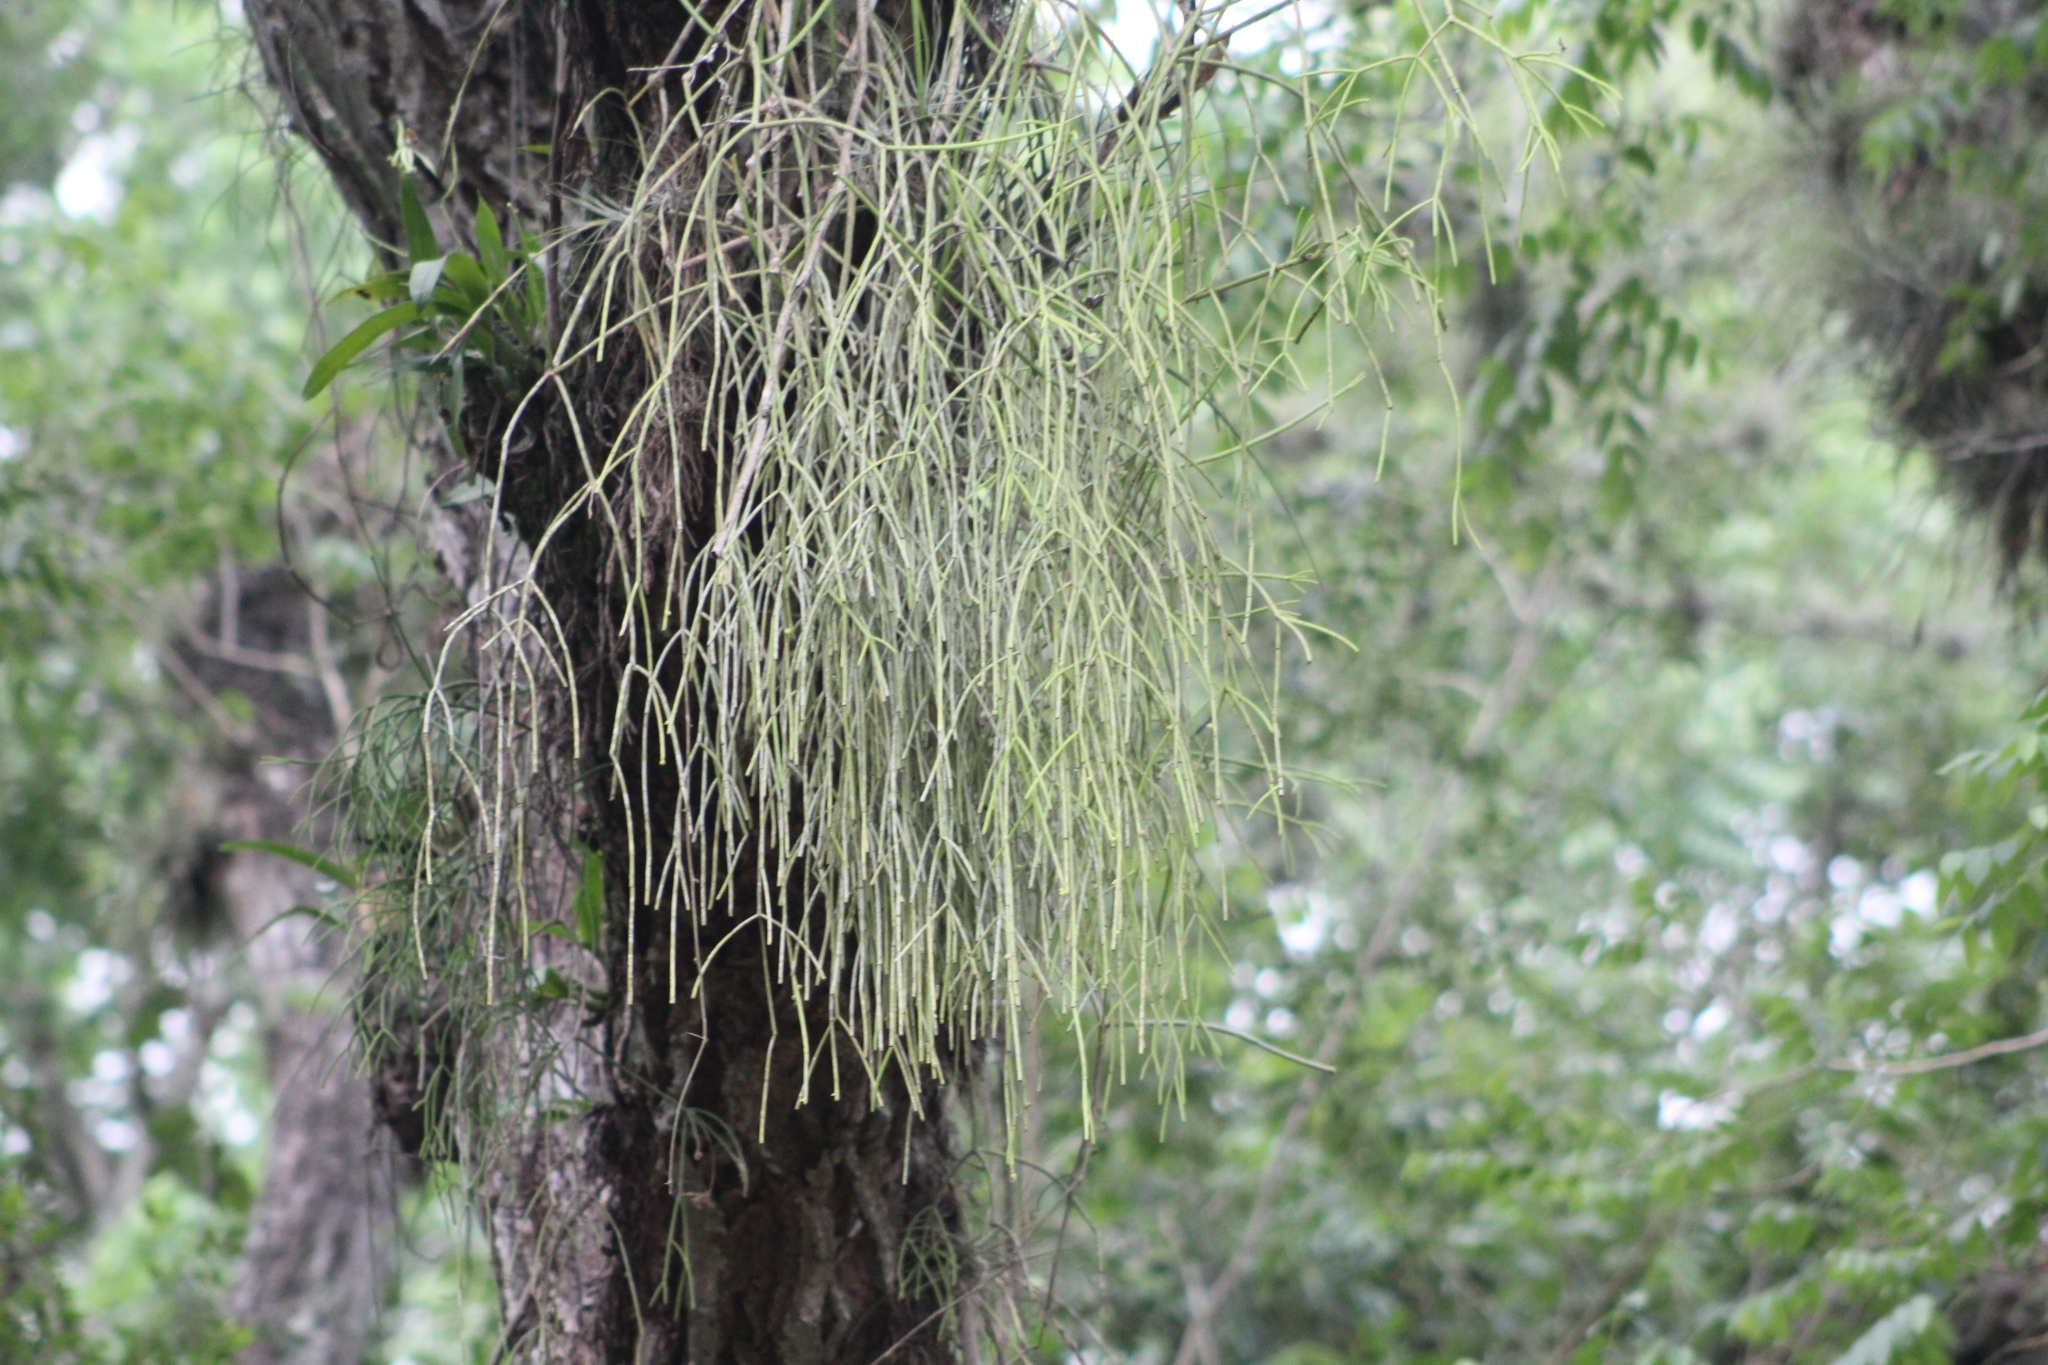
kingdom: Plantae
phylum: Tracheophyta
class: Magnoliopsida
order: Caryophyllales
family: Cactaceae
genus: Rhipsalis
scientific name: Rhipsalis baccifera
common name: Mistletoe cactus
